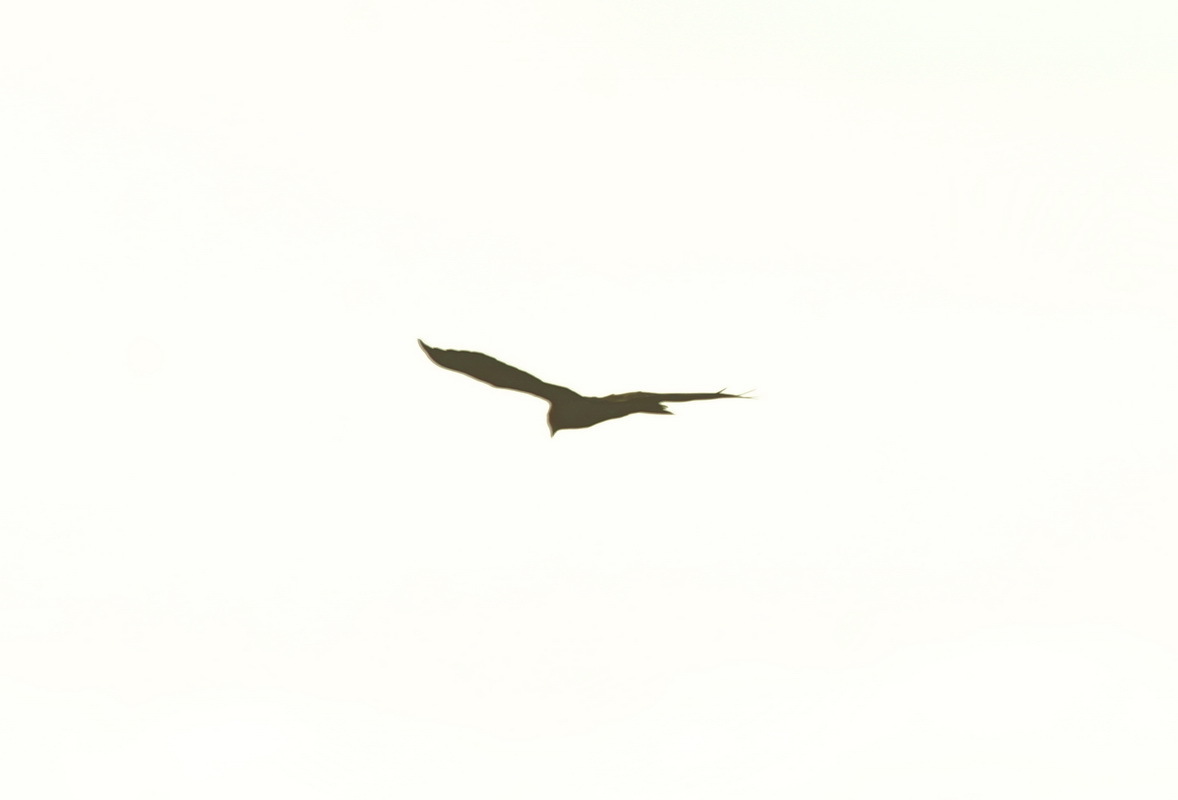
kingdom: Animalia
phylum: Chordata
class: Aves
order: Accipitriformes
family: Accipitridae
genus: Circus
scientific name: Circus aeruginosus
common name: Western marsh harrier
